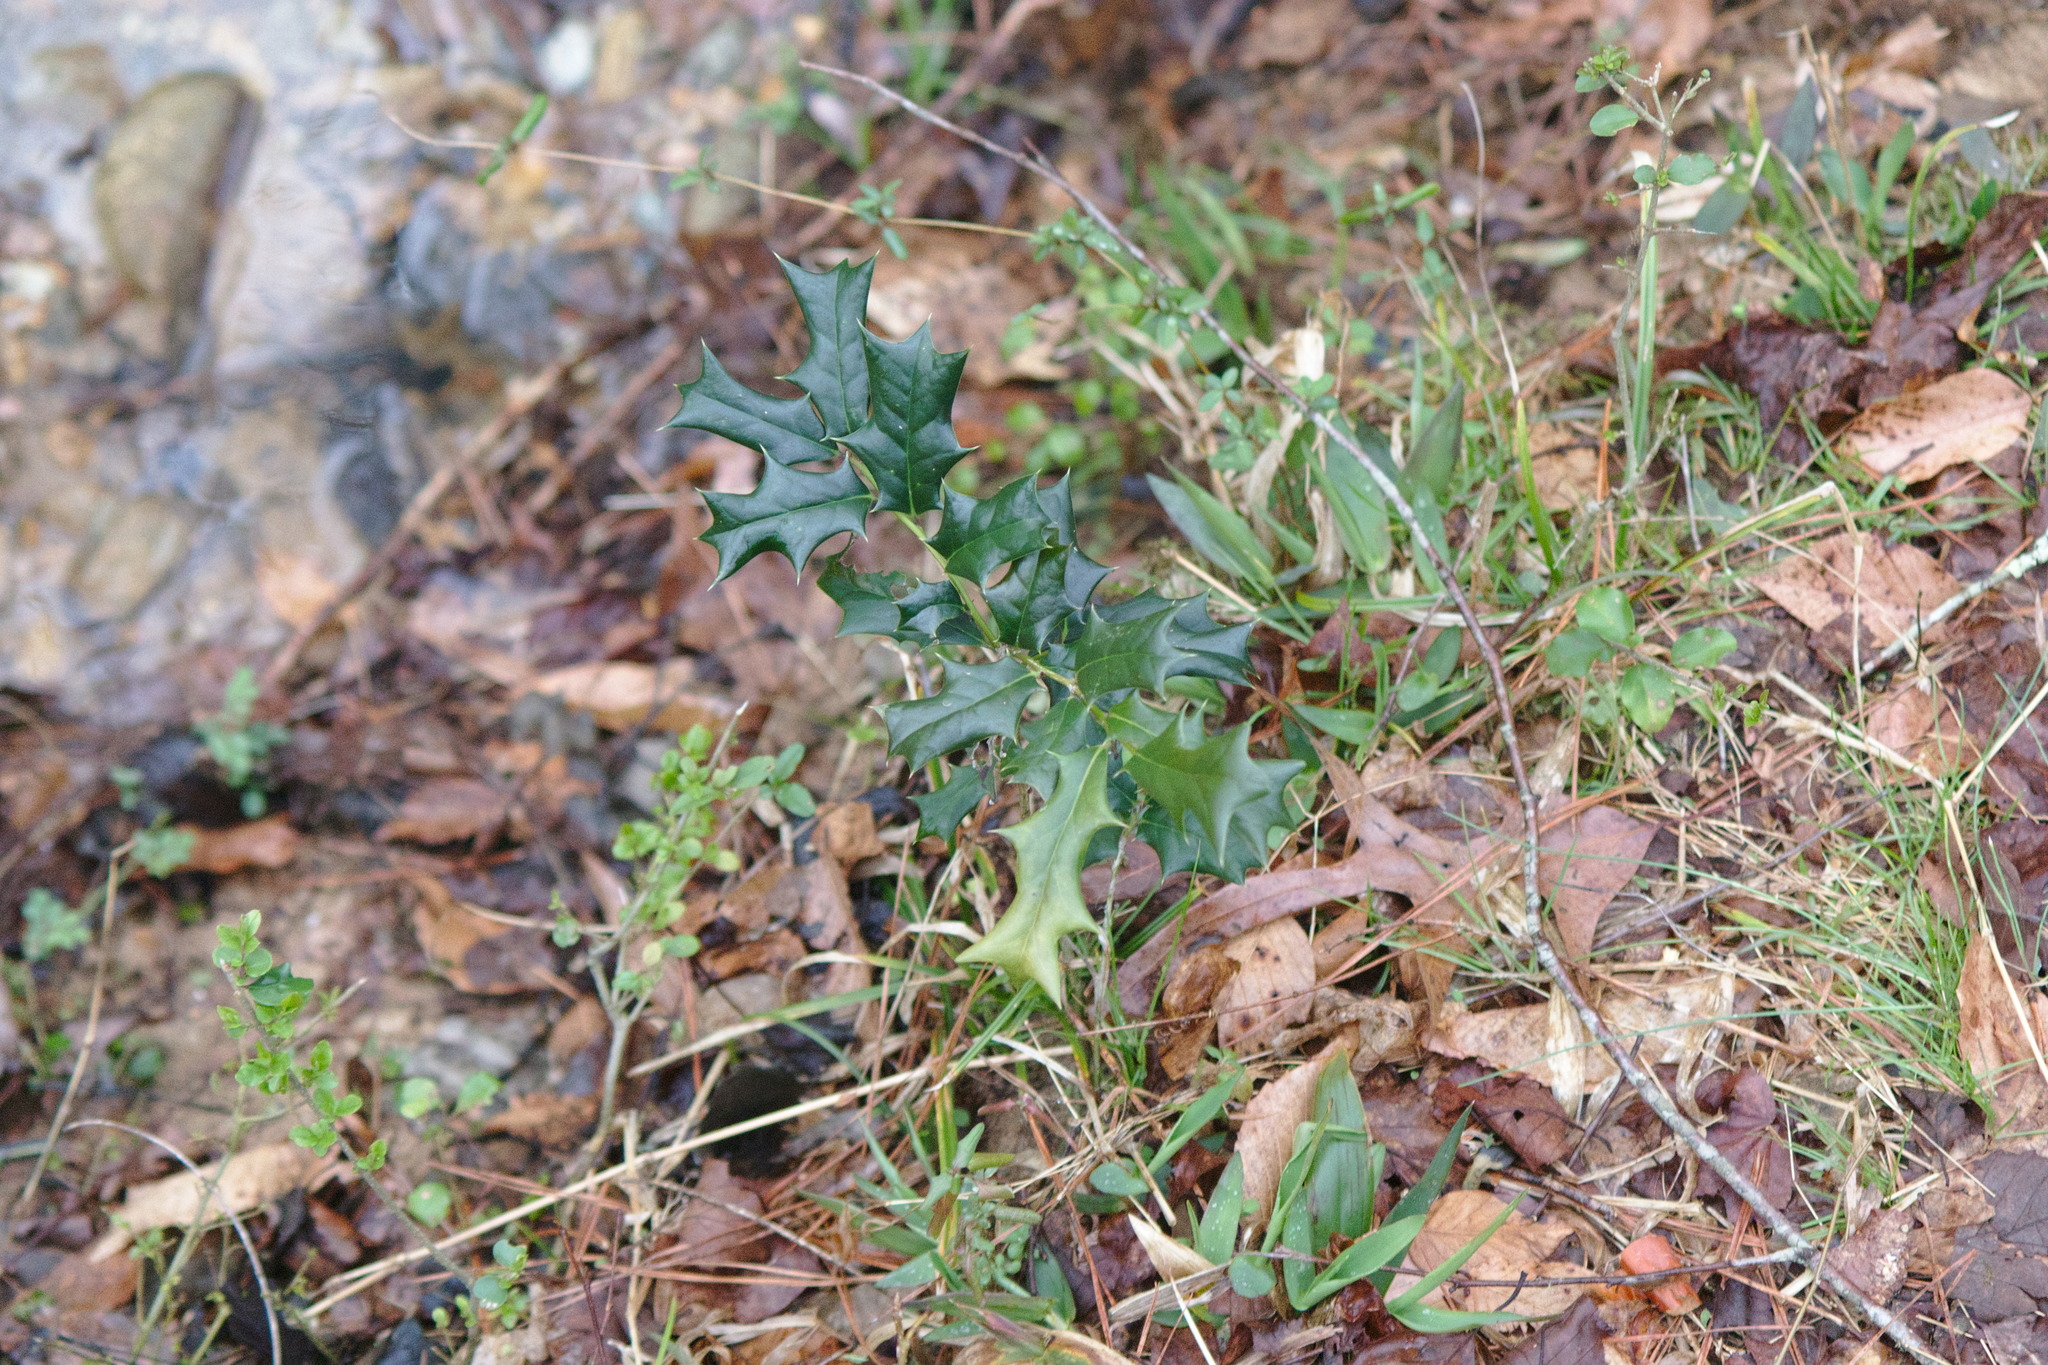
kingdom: Plantae
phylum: Tracheophyta
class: Magnoliopsida
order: Aquifoliales
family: Aquifoliaceae
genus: Ilex
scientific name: Ilex cornuta
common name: Chinese holly
